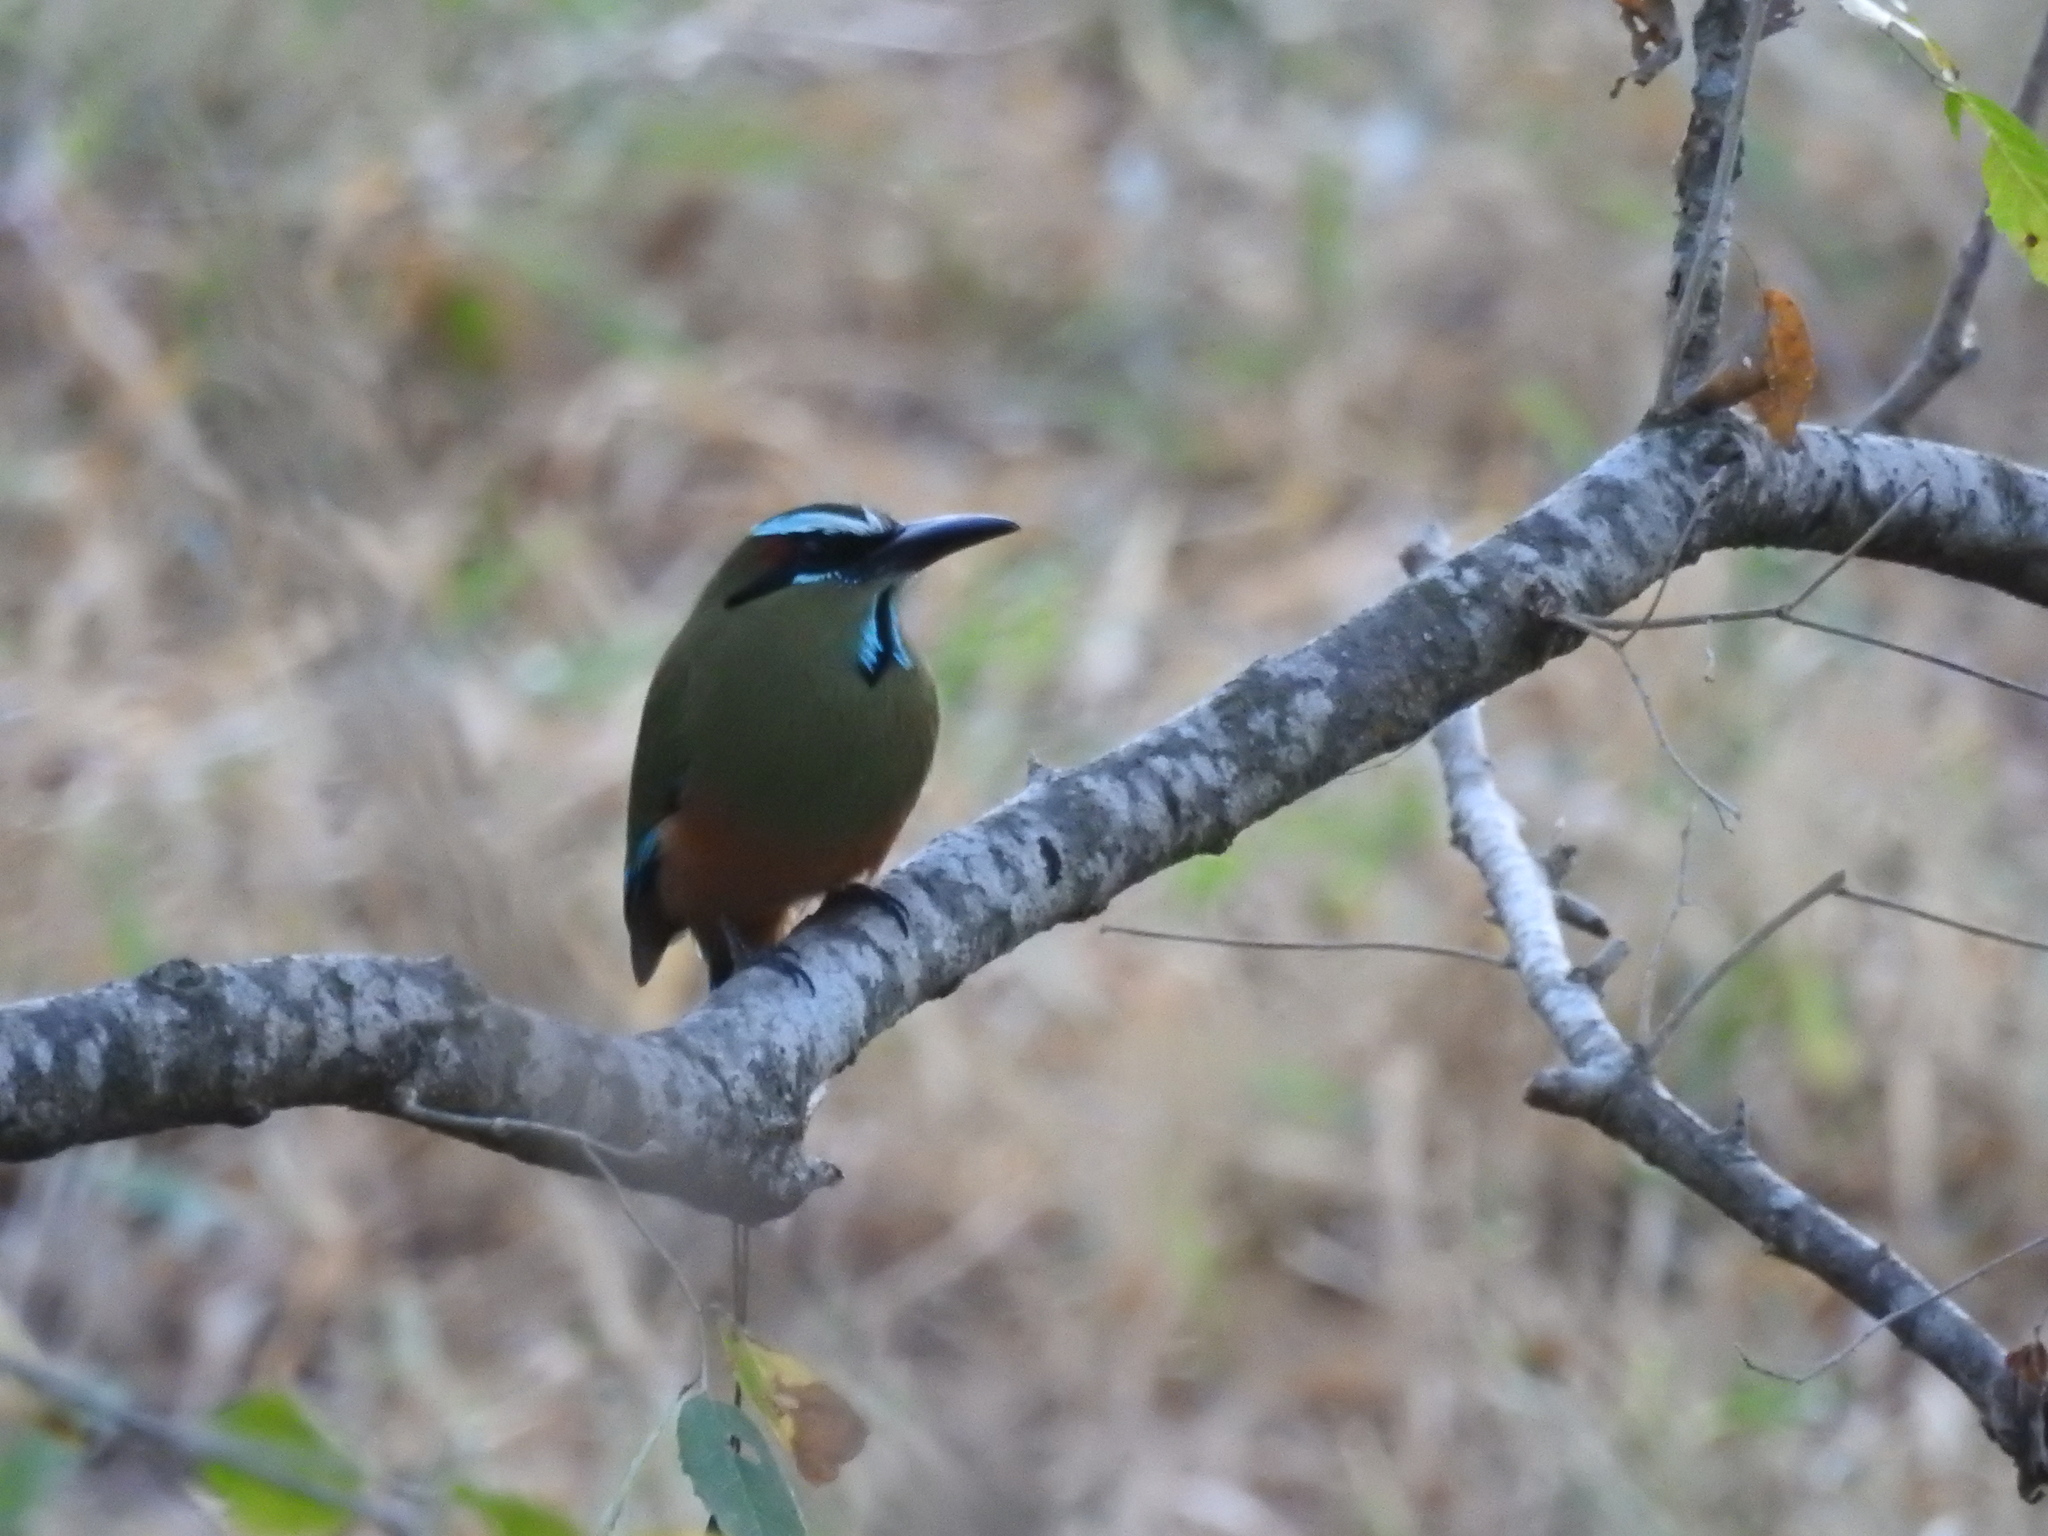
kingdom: Animalia
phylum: Chordata
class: Aves
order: Coraciiformes
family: Momotidae
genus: Eumomota
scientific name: Eumomota superciliosa
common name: Turquoise-browed motmot
